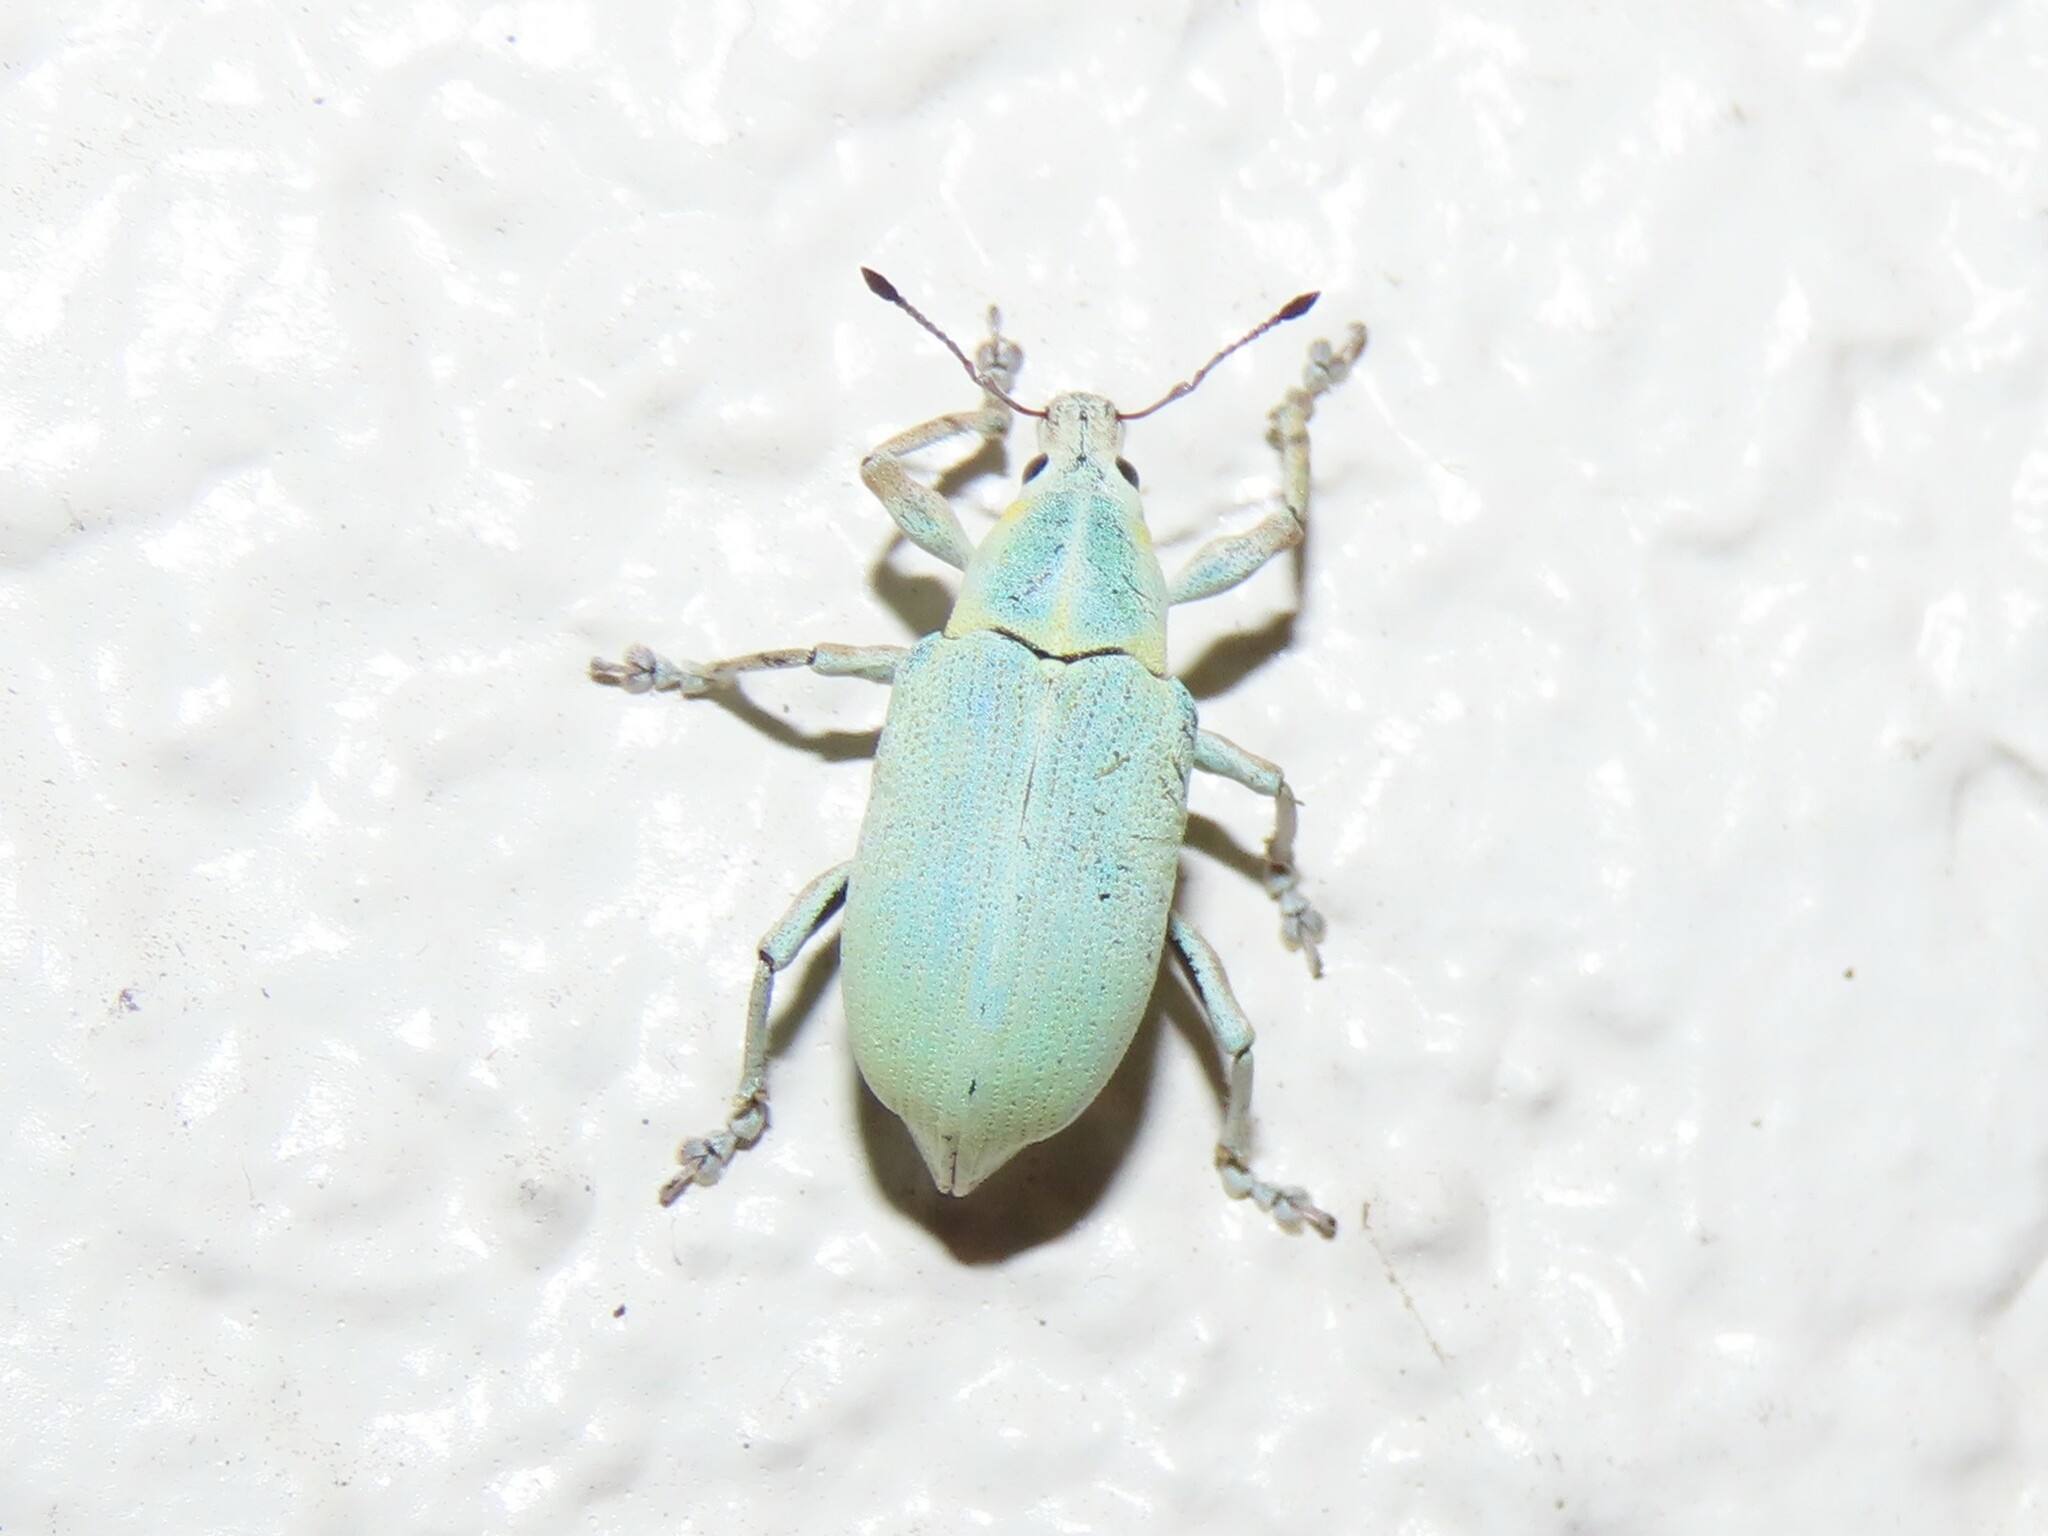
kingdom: Animalia
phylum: Arthropoda
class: Insecta
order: Coleoptera
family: Curculionidae
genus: Pachnaeus
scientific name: Pachnaeus litus
